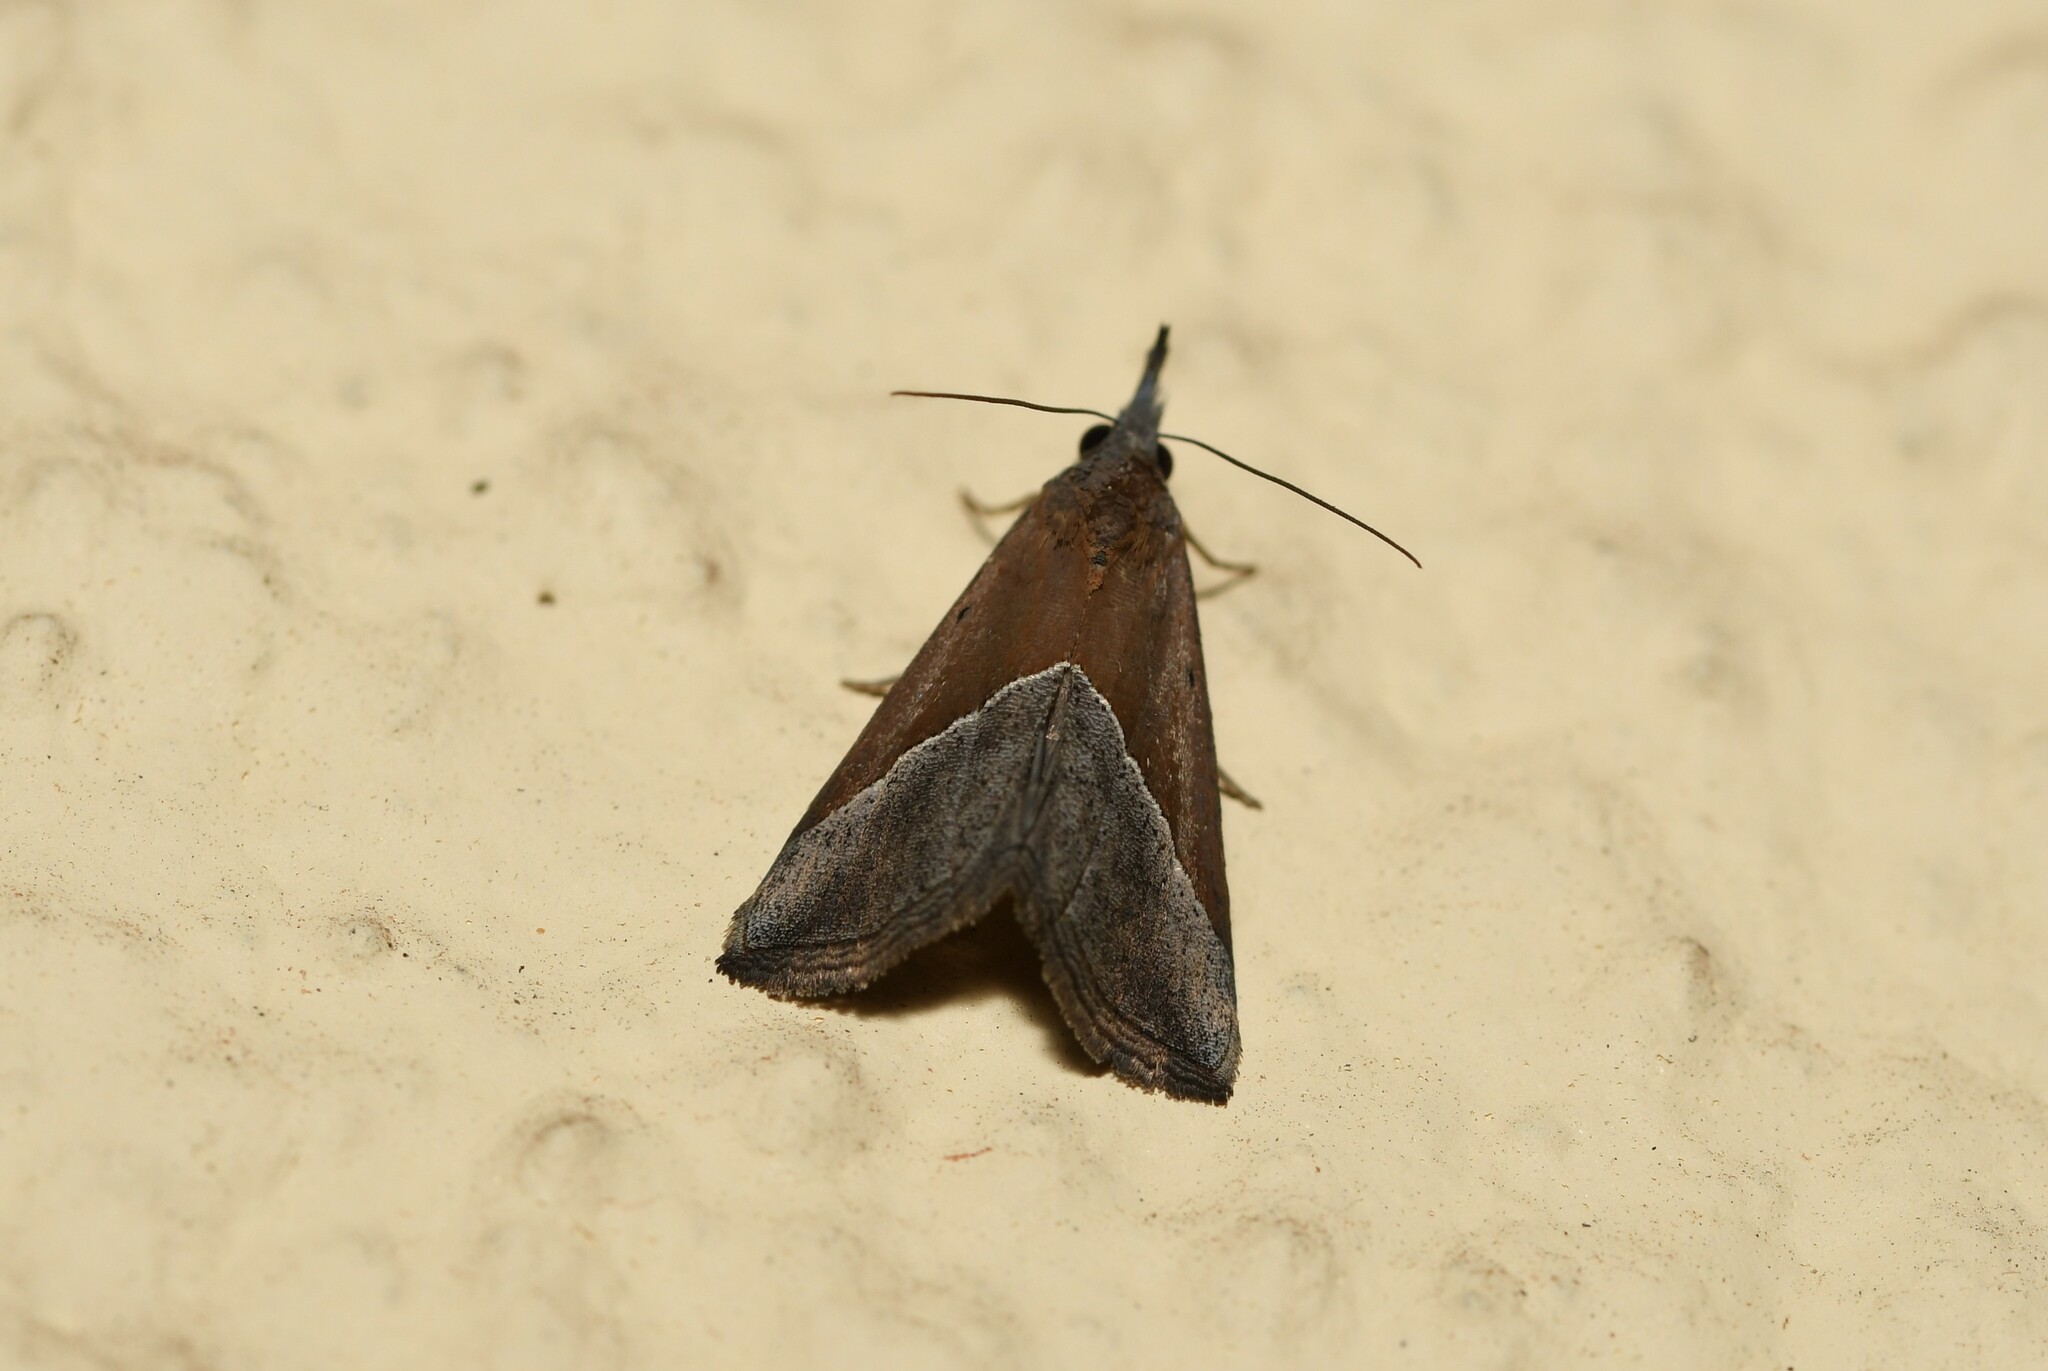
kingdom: Animalia
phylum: Arthropoda
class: Insecta
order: Lepidoptera
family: Erebidae
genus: Hypena
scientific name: Hypena lividalis
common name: Chevron snout
